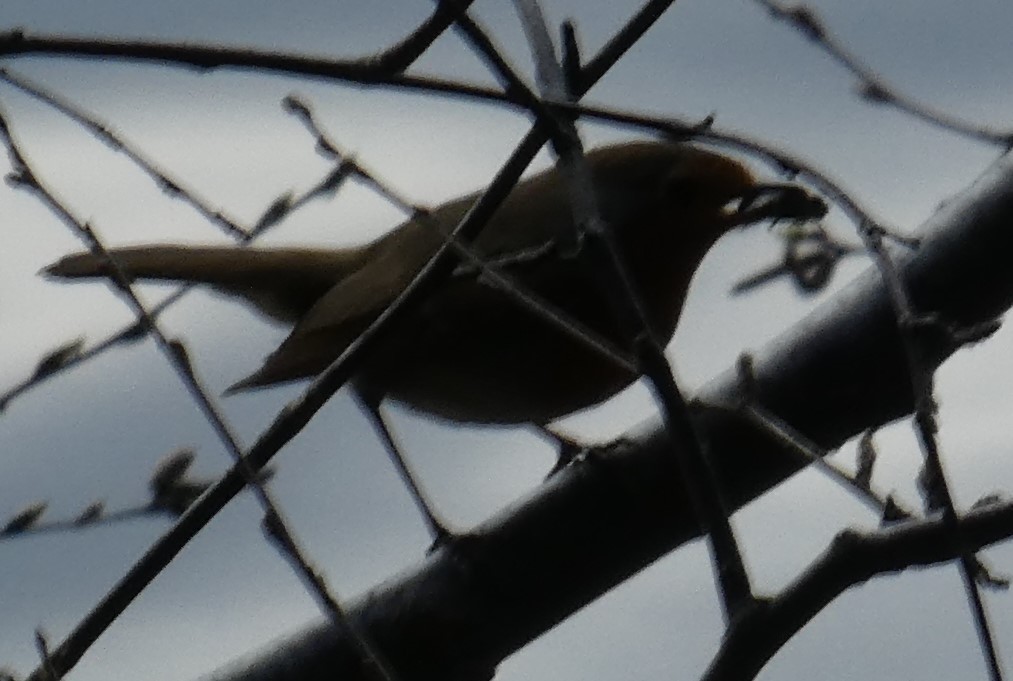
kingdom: Animalia
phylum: Chordata
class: Aves
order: Passeriformes
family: Muscicapidae
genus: Erithacus
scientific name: Erithacus rubecula
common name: European robin
